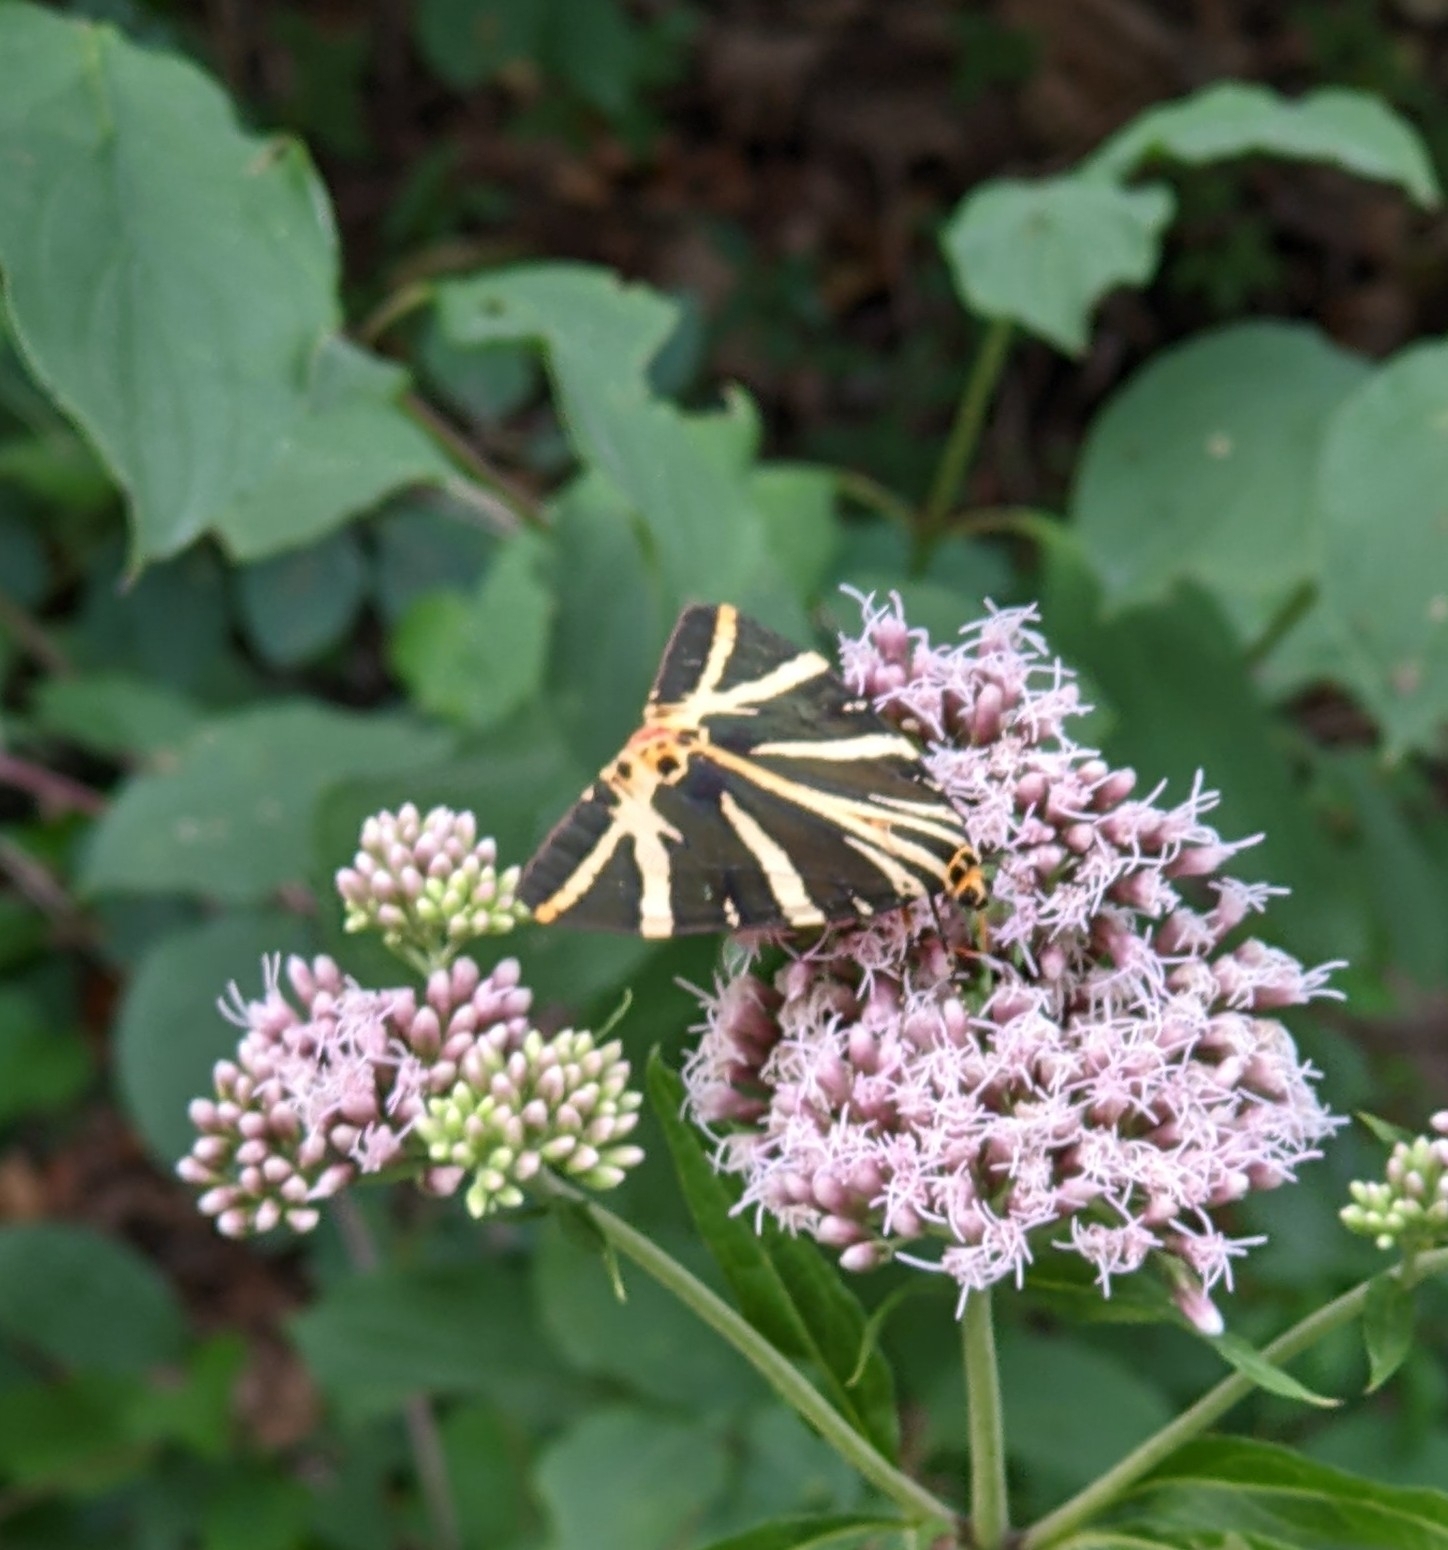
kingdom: Animalia
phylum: Arthropoda
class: Insecta
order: Lepidoptera
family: Erebidae
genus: Euplagia
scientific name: Euplagia quadripunctaria
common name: Jersey tiger
